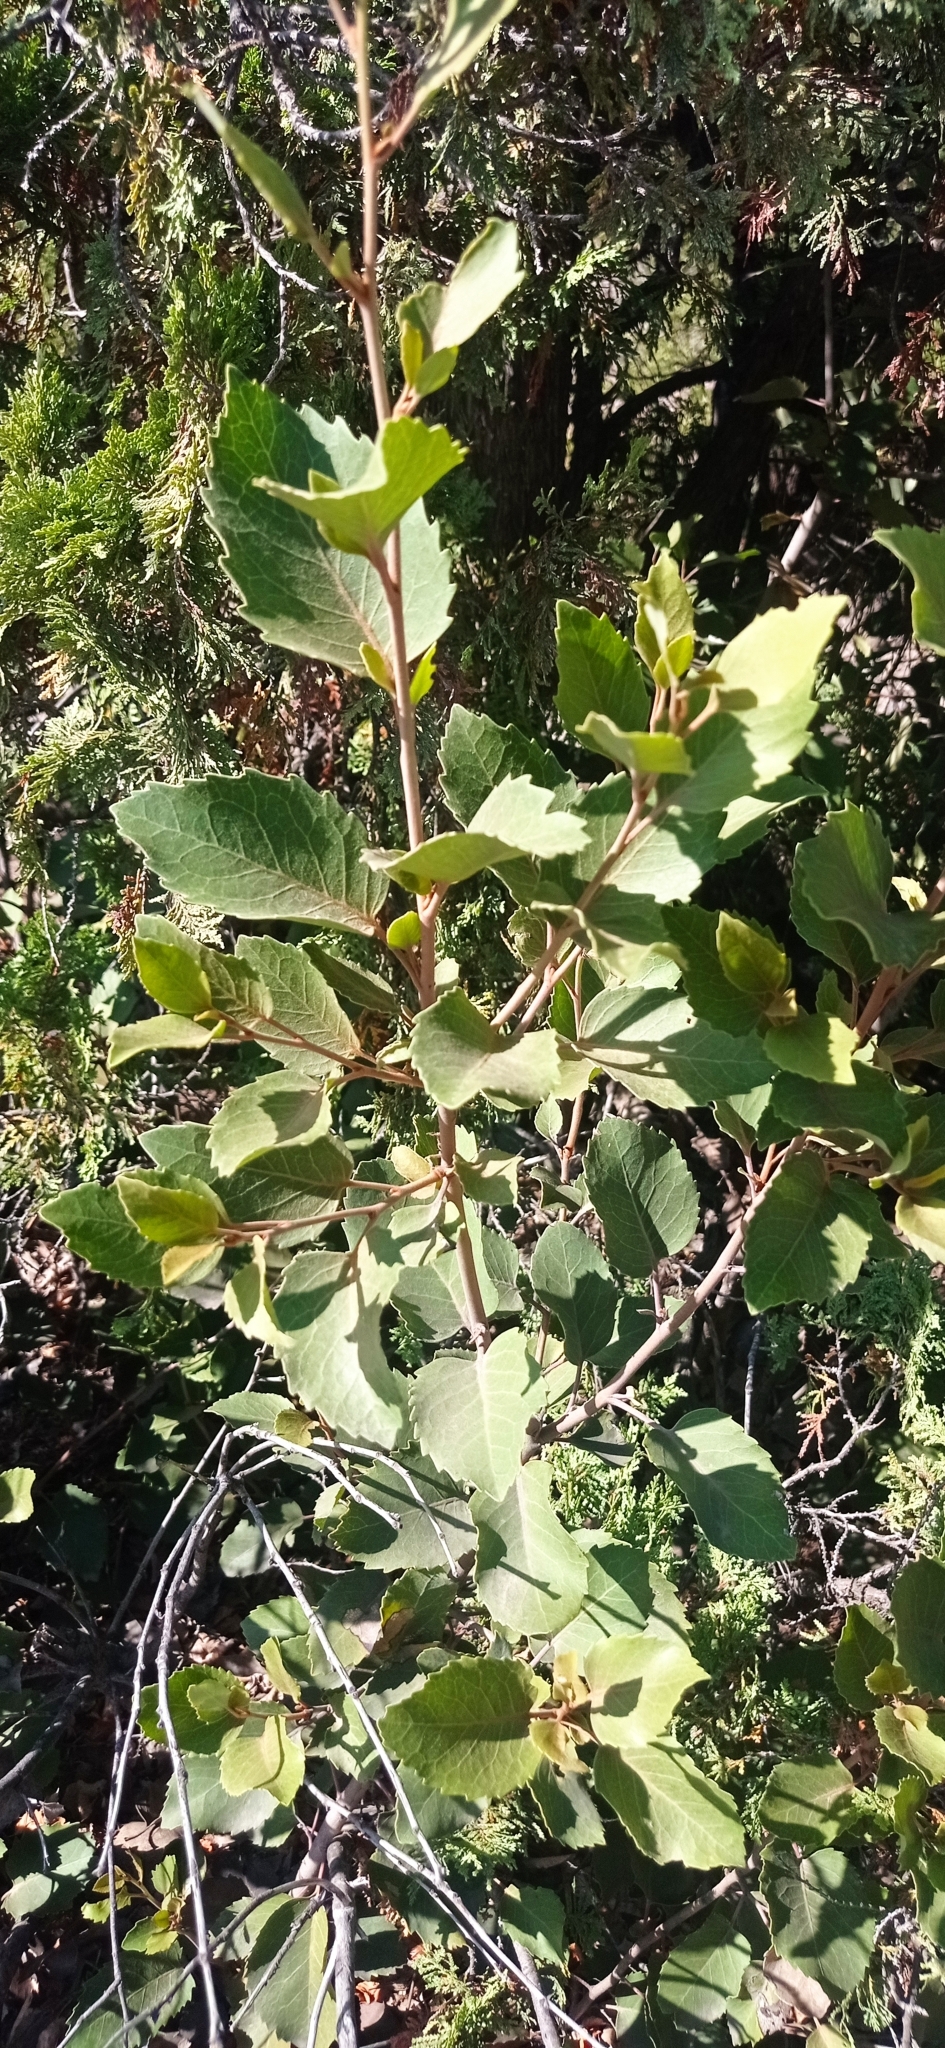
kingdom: Plantae
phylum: Tracheophyta
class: Magnoliopsida
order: Proteales
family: Proteaceae
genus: Lomatia
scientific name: Lomatia hirsuta
